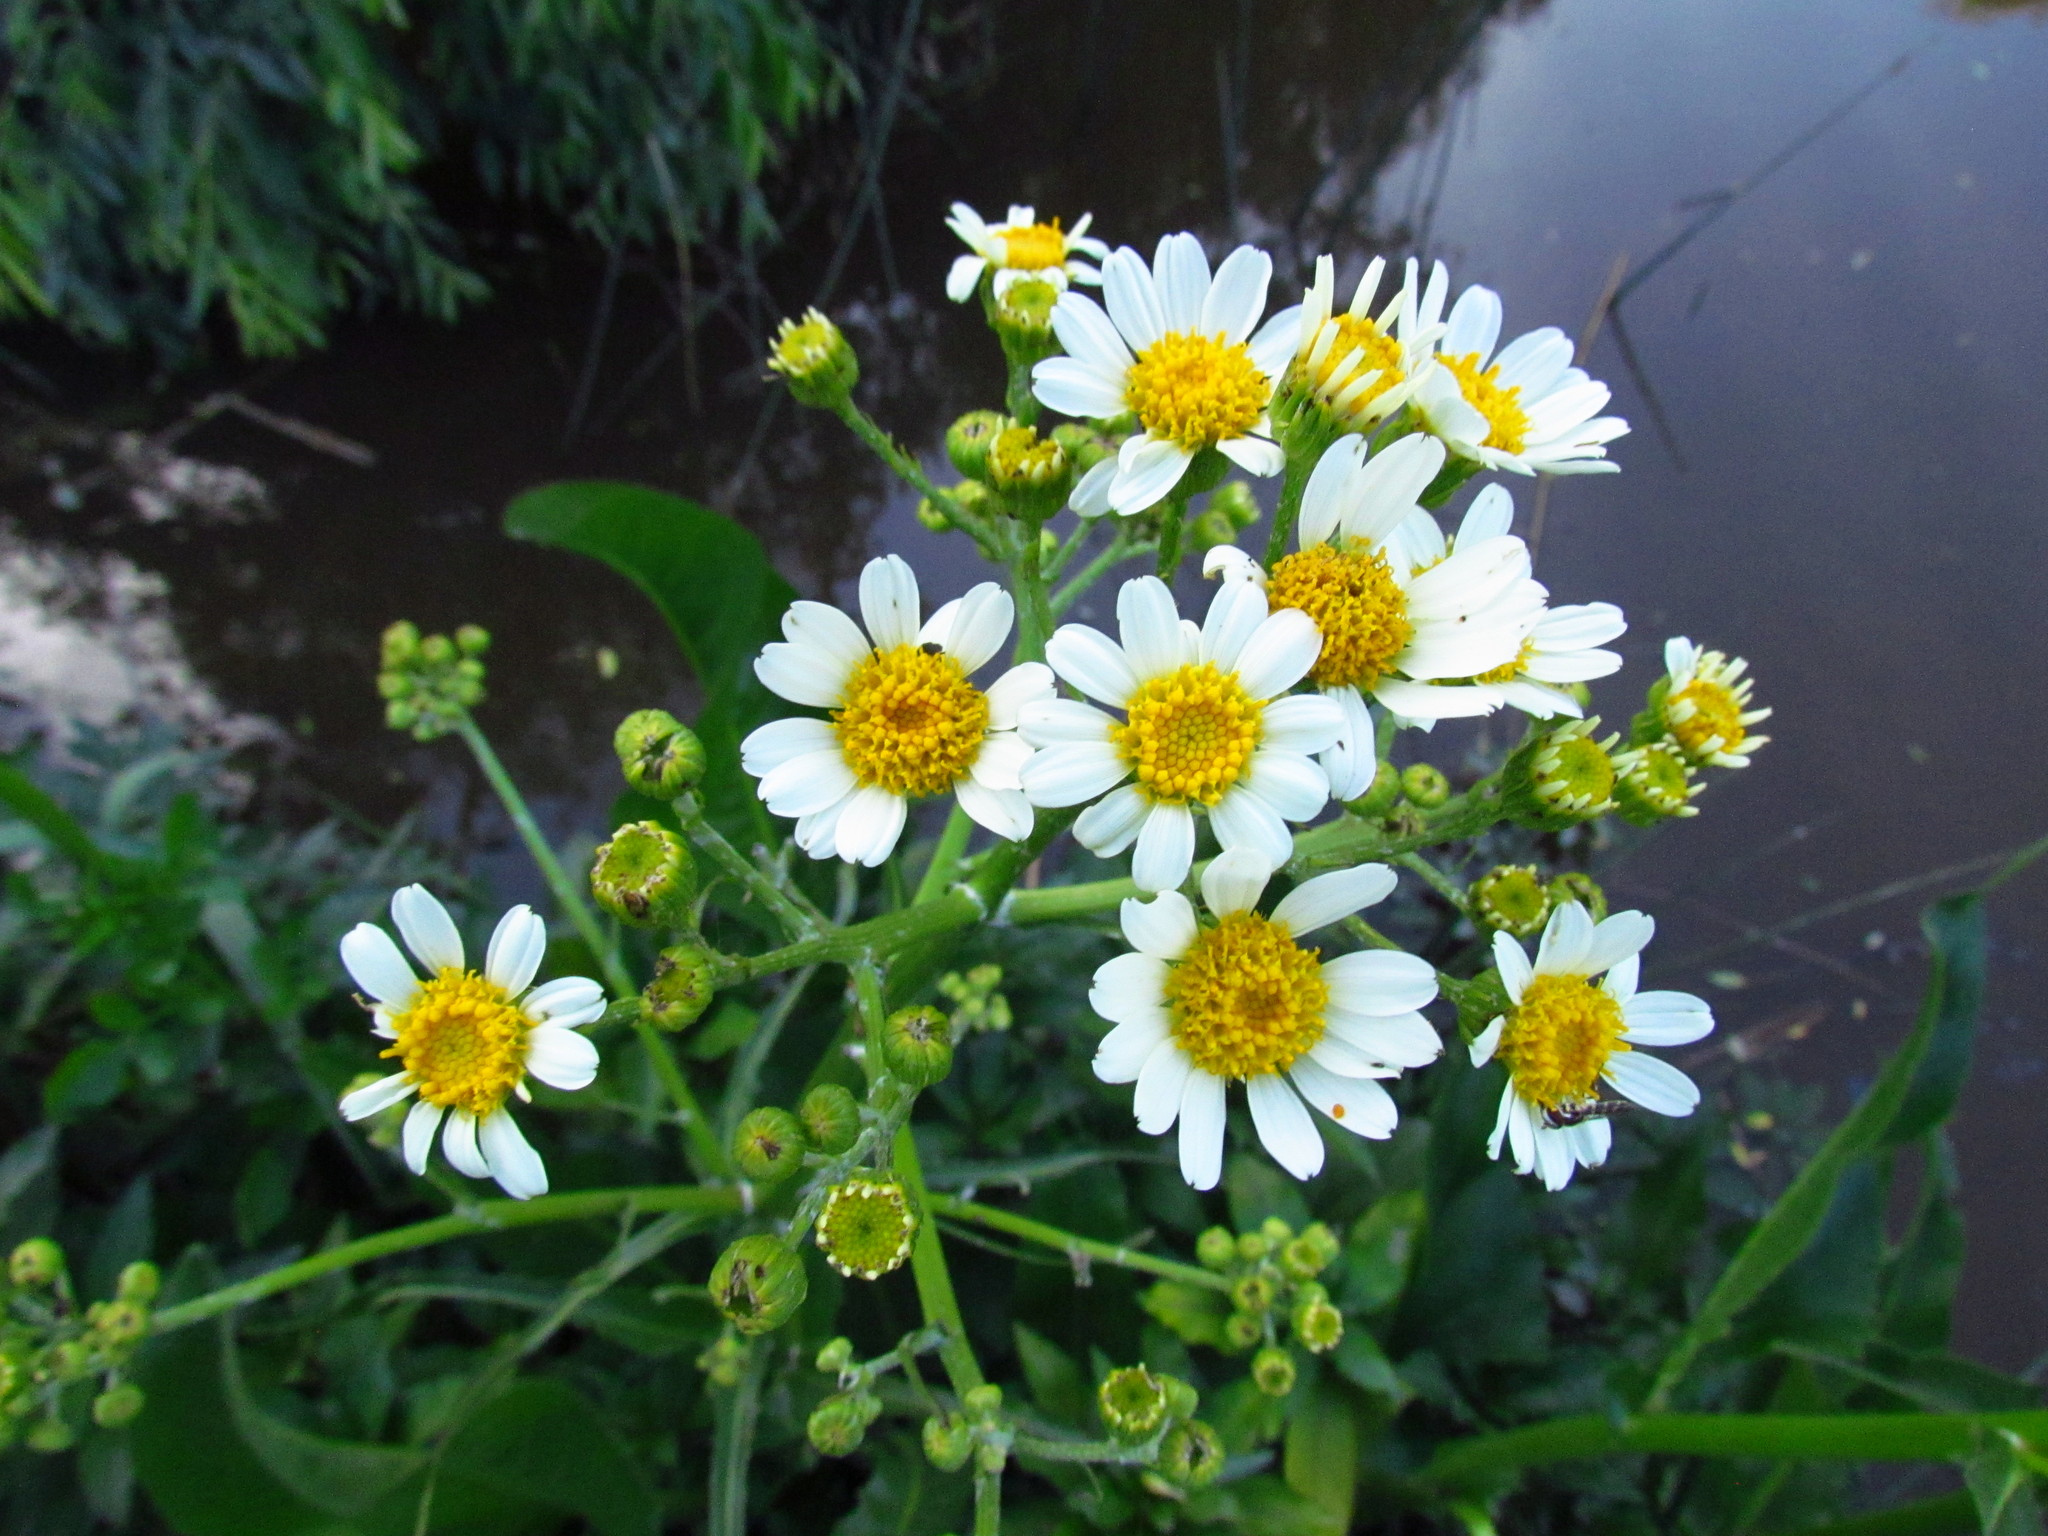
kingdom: Plantae
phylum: Tracheophyta
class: Magnoliopsida
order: Asterales
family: Asteraceae
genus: Senecio
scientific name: Senecio bonariensis
